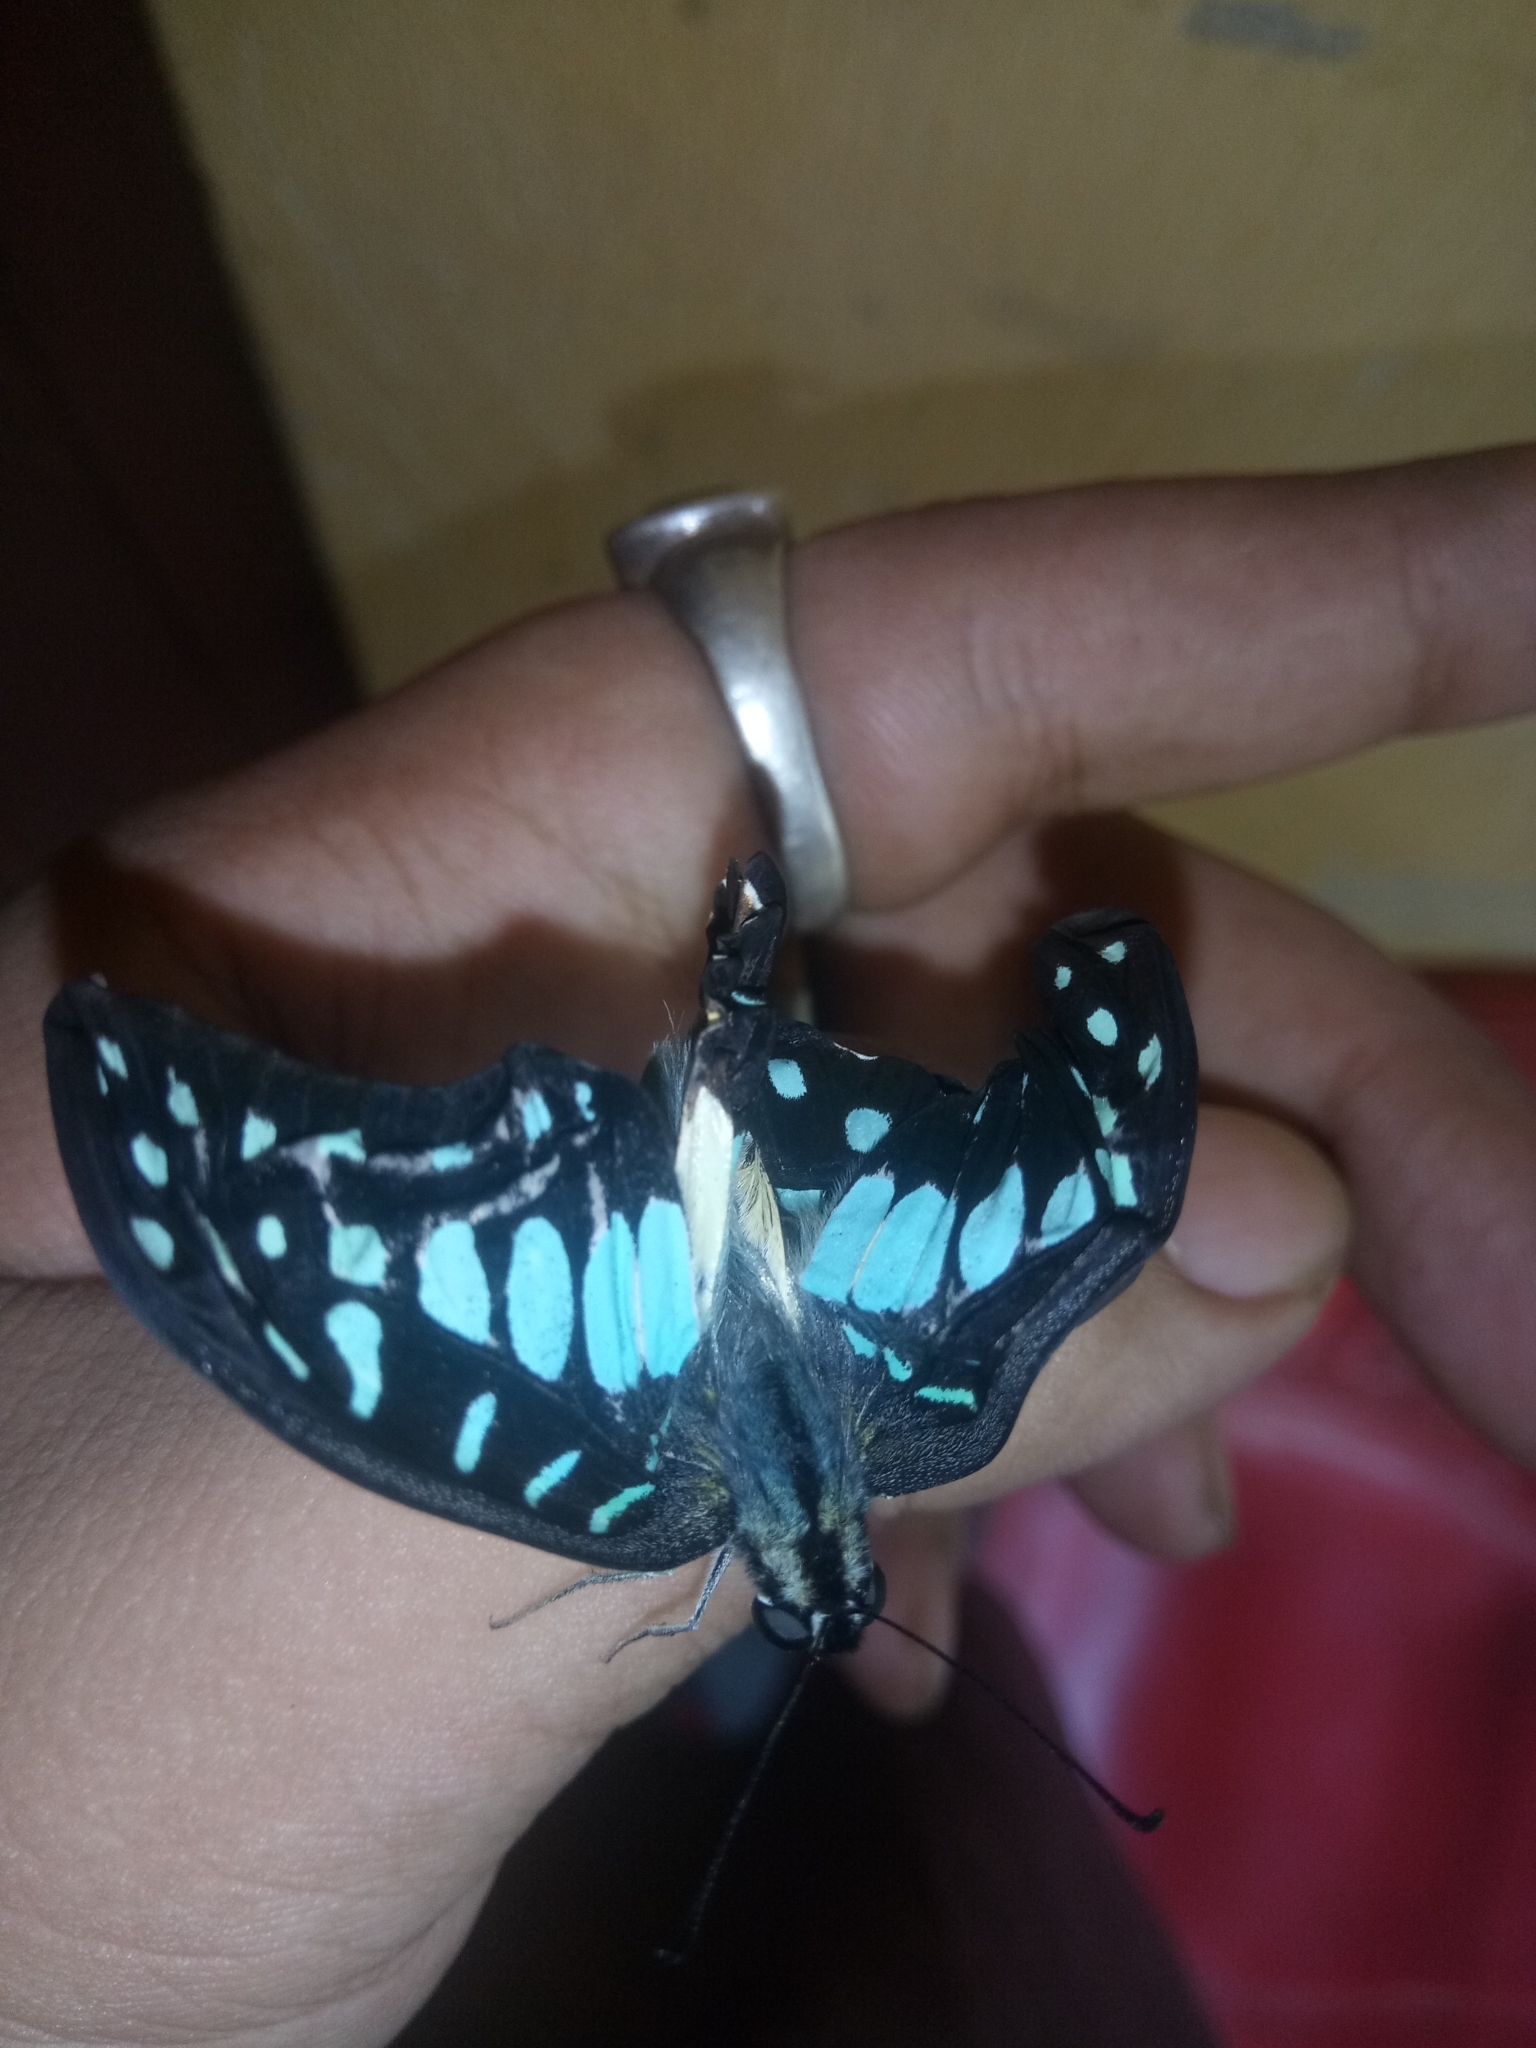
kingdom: Animalia
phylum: Arthropoda
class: Insecta
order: Lepidoptera
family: Papilionidae
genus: Graphium
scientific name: Graphium doson
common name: Common jay
